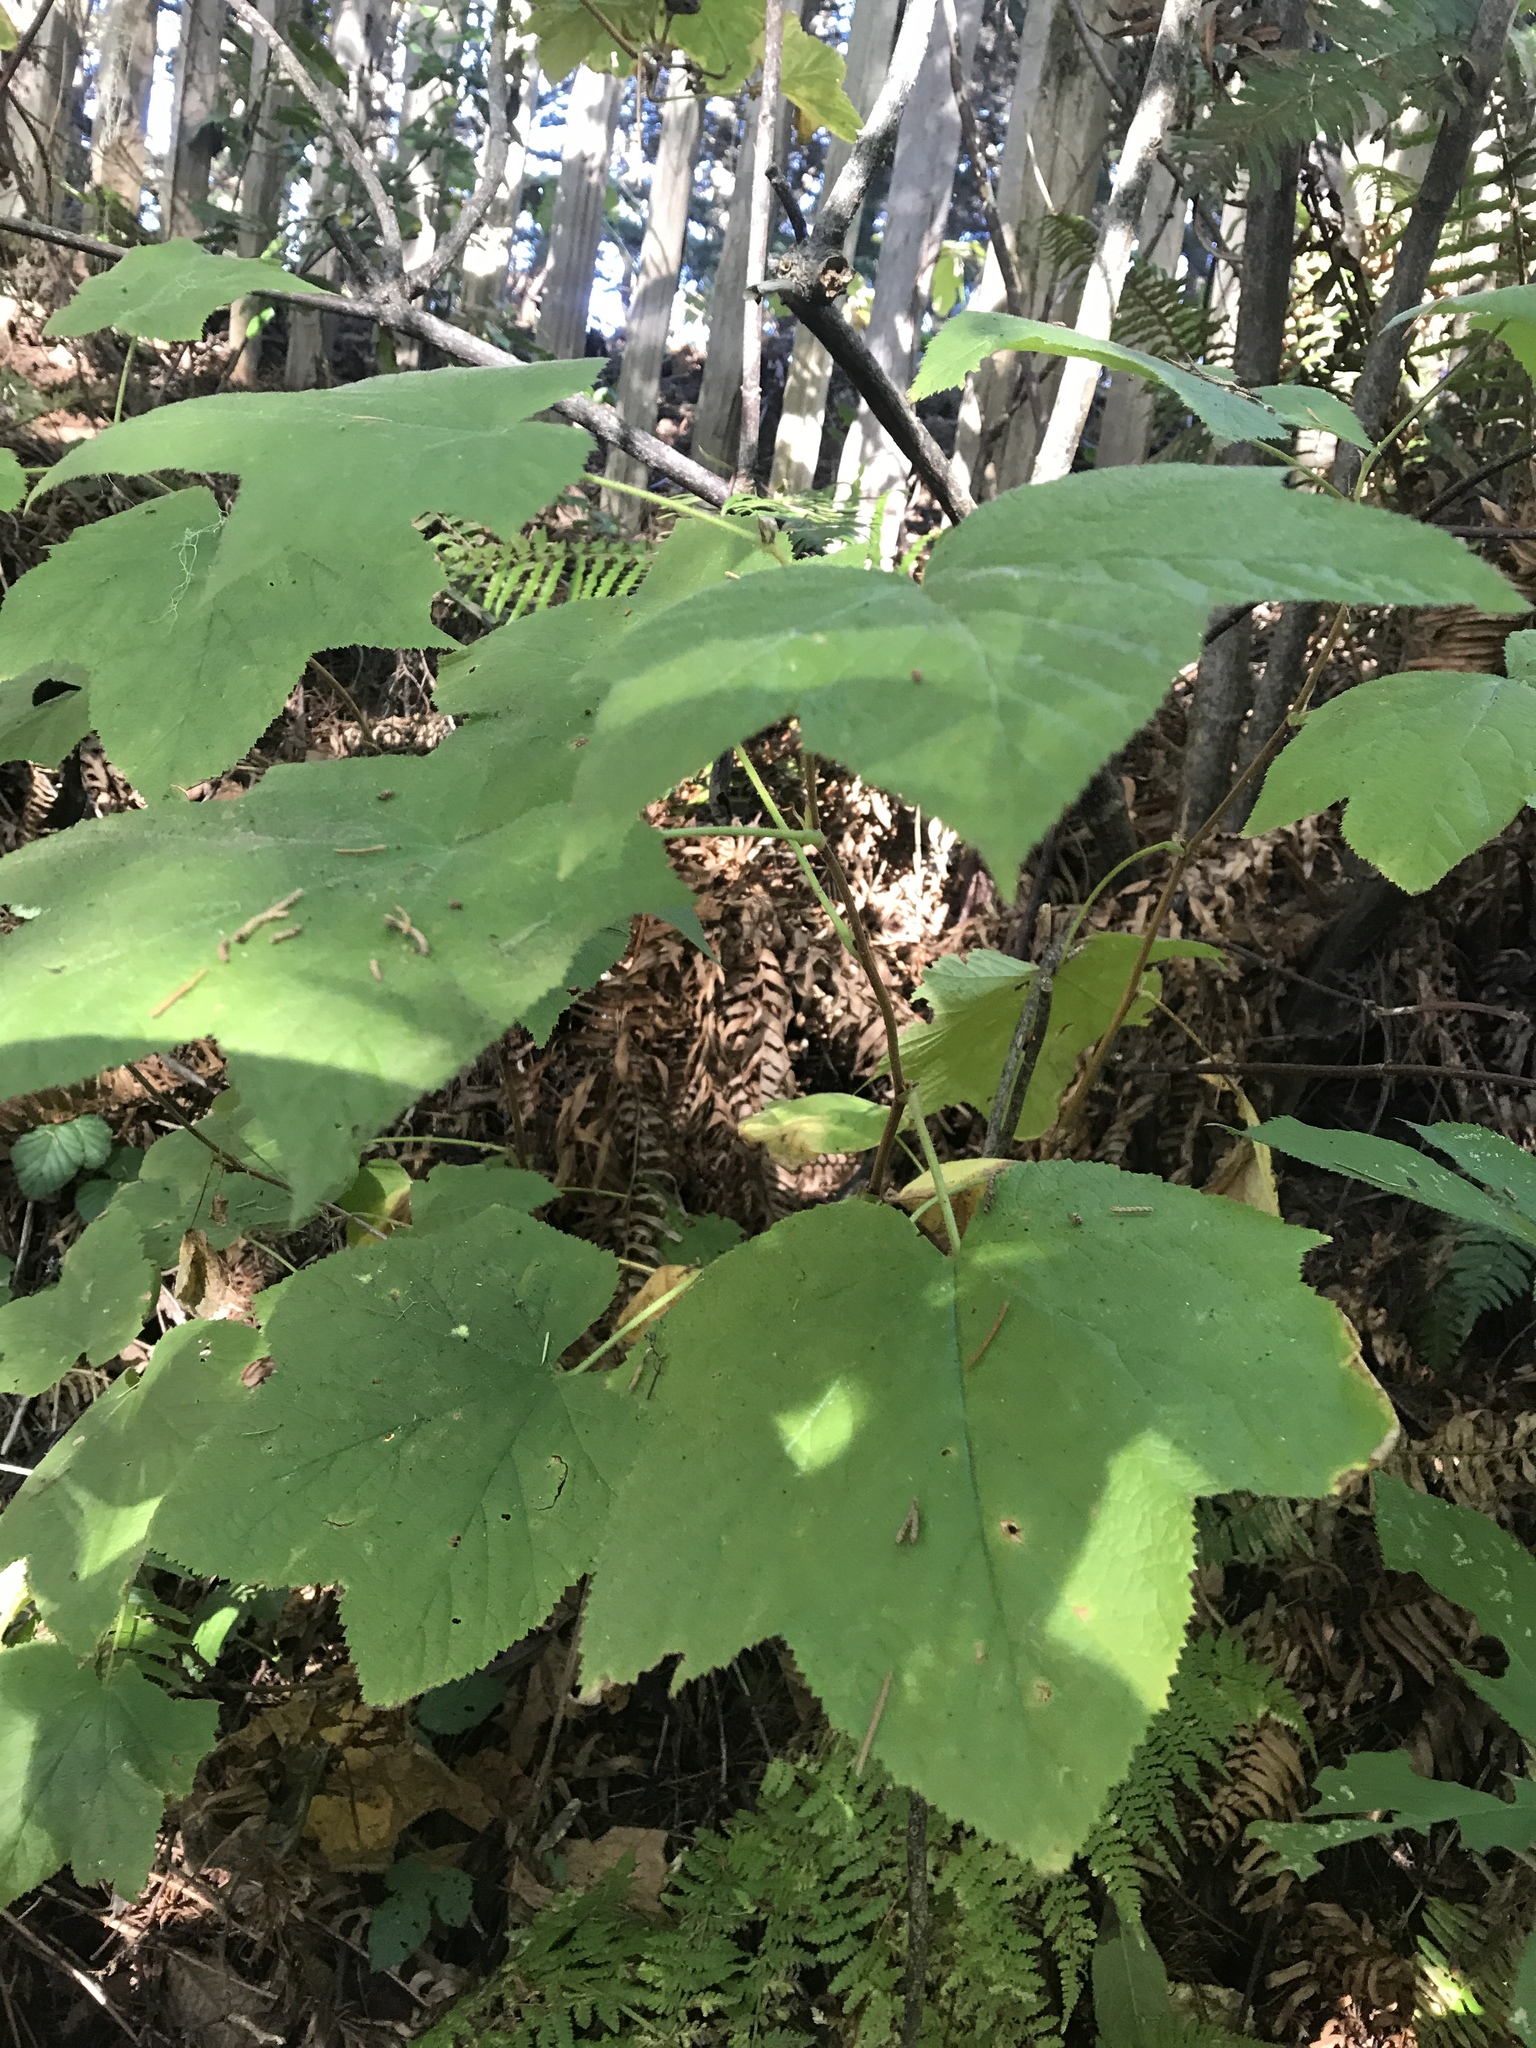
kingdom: Plantae
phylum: Tracheophyta
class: Magnoliopsida
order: Rosales
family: Rosaceae
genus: Rubus
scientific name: Rubus parviflorus
